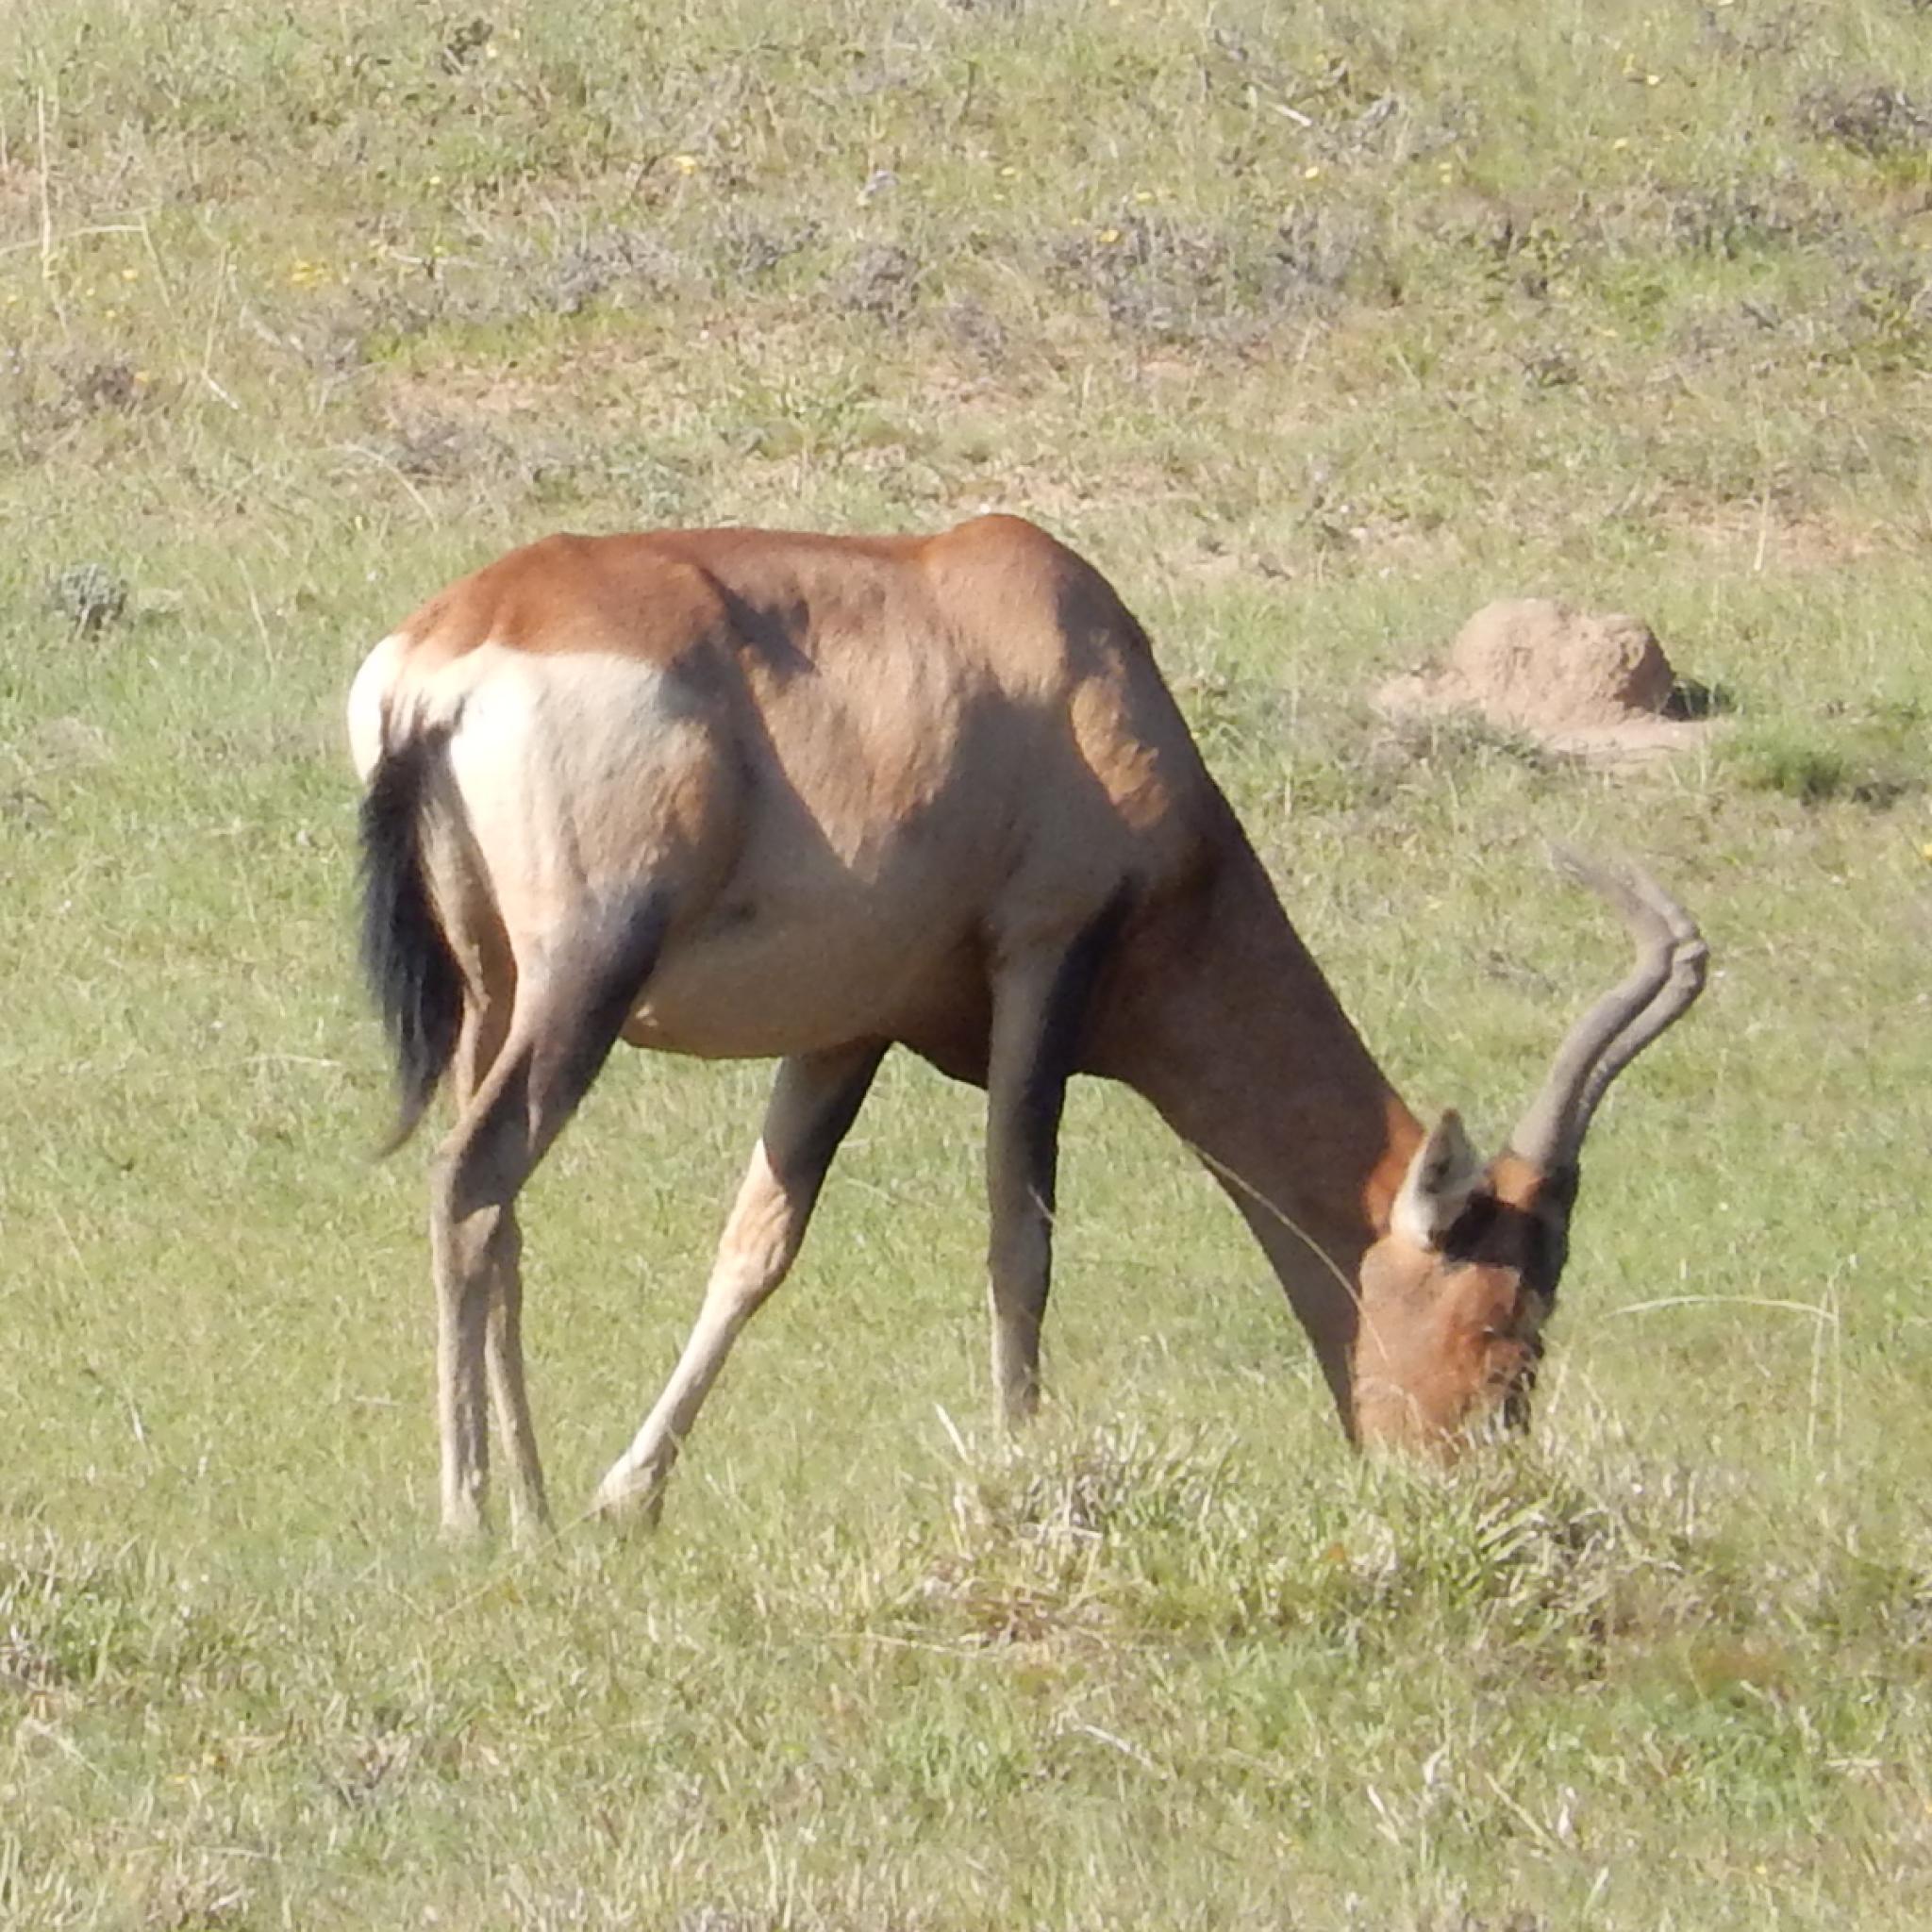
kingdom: Animalia
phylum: Chordata
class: Mammalia
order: Artiodactyla
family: Bovidae
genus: Alcelaphus
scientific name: Alcelaphus caama
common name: Red hartebeest
